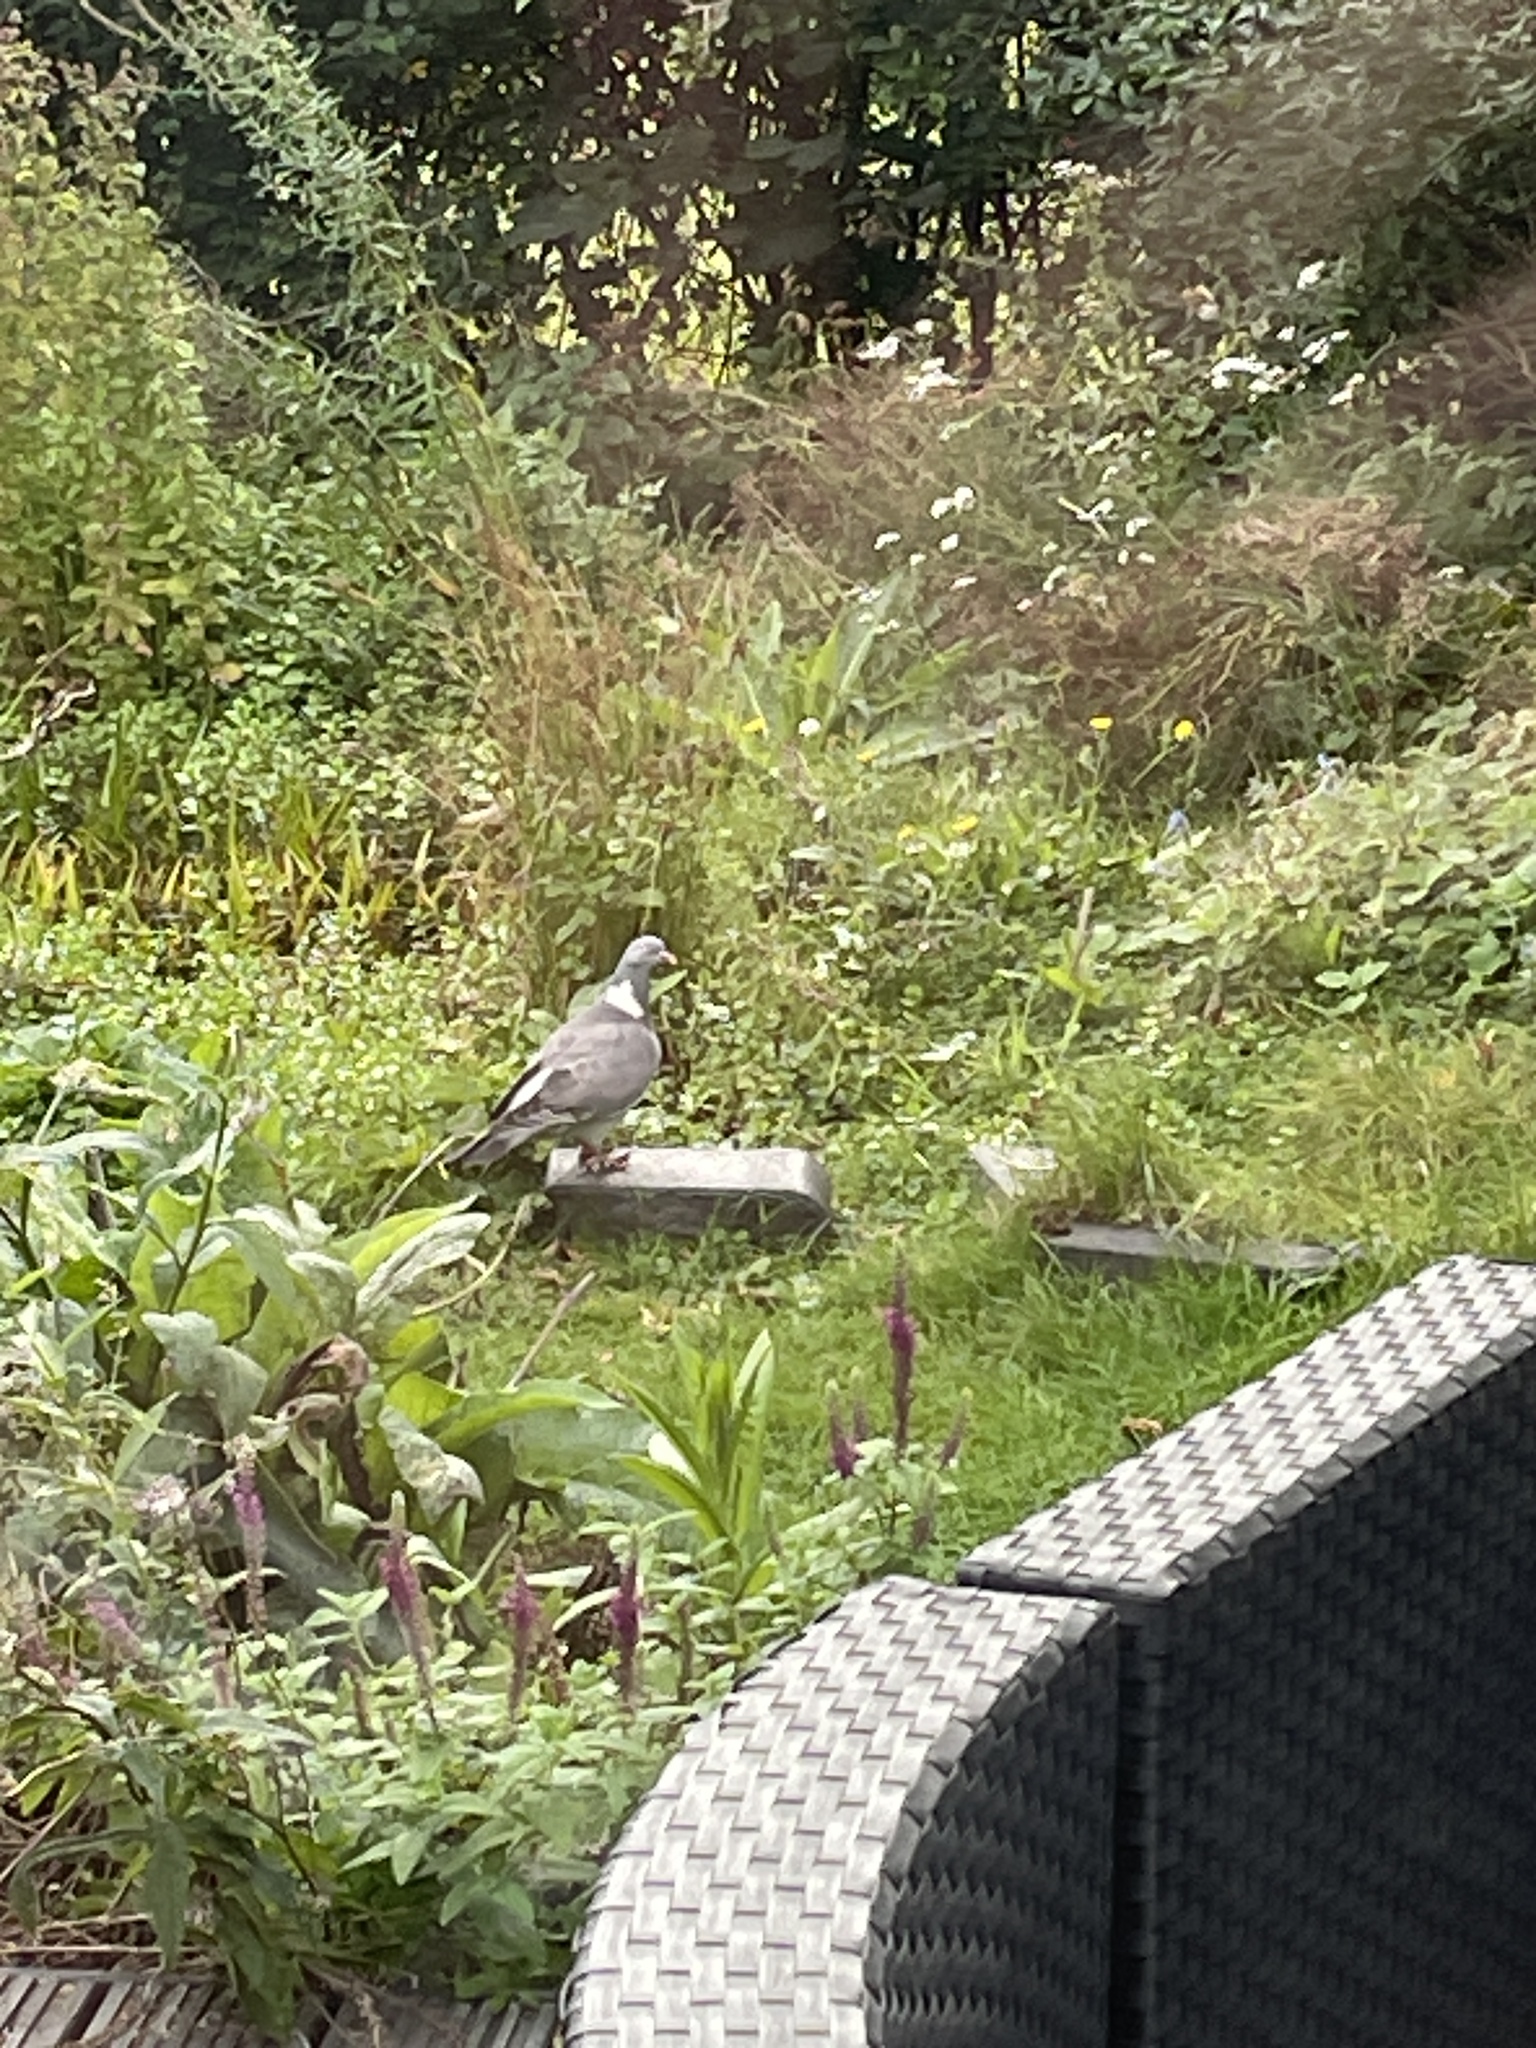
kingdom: Animalia
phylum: Chordata
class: Aves
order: Columbiformes
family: Columbidae
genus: Columba
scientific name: Columba palumbus
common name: Common wood pigeon
